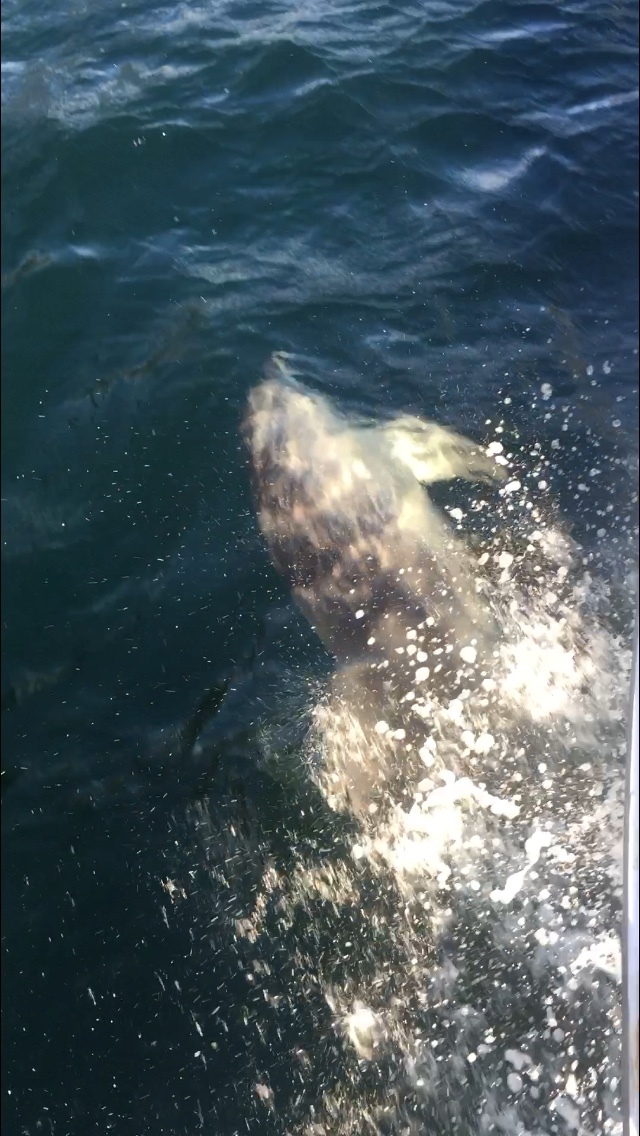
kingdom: Animalia
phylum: Chordata
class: Mammalia
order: Cetacea
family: Delphinidae
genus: Tursiops
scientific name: Tursiops truncatus
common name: Bottlenose dolphin
